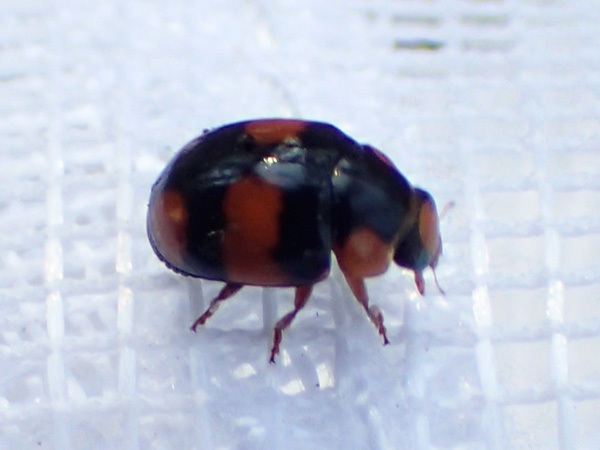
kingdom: Animalia
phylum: Arthropoda
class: Insecta
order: Coleoptera
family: Coccinellidae
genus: Brachiacantha
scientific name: Brachiacantha dentipes
